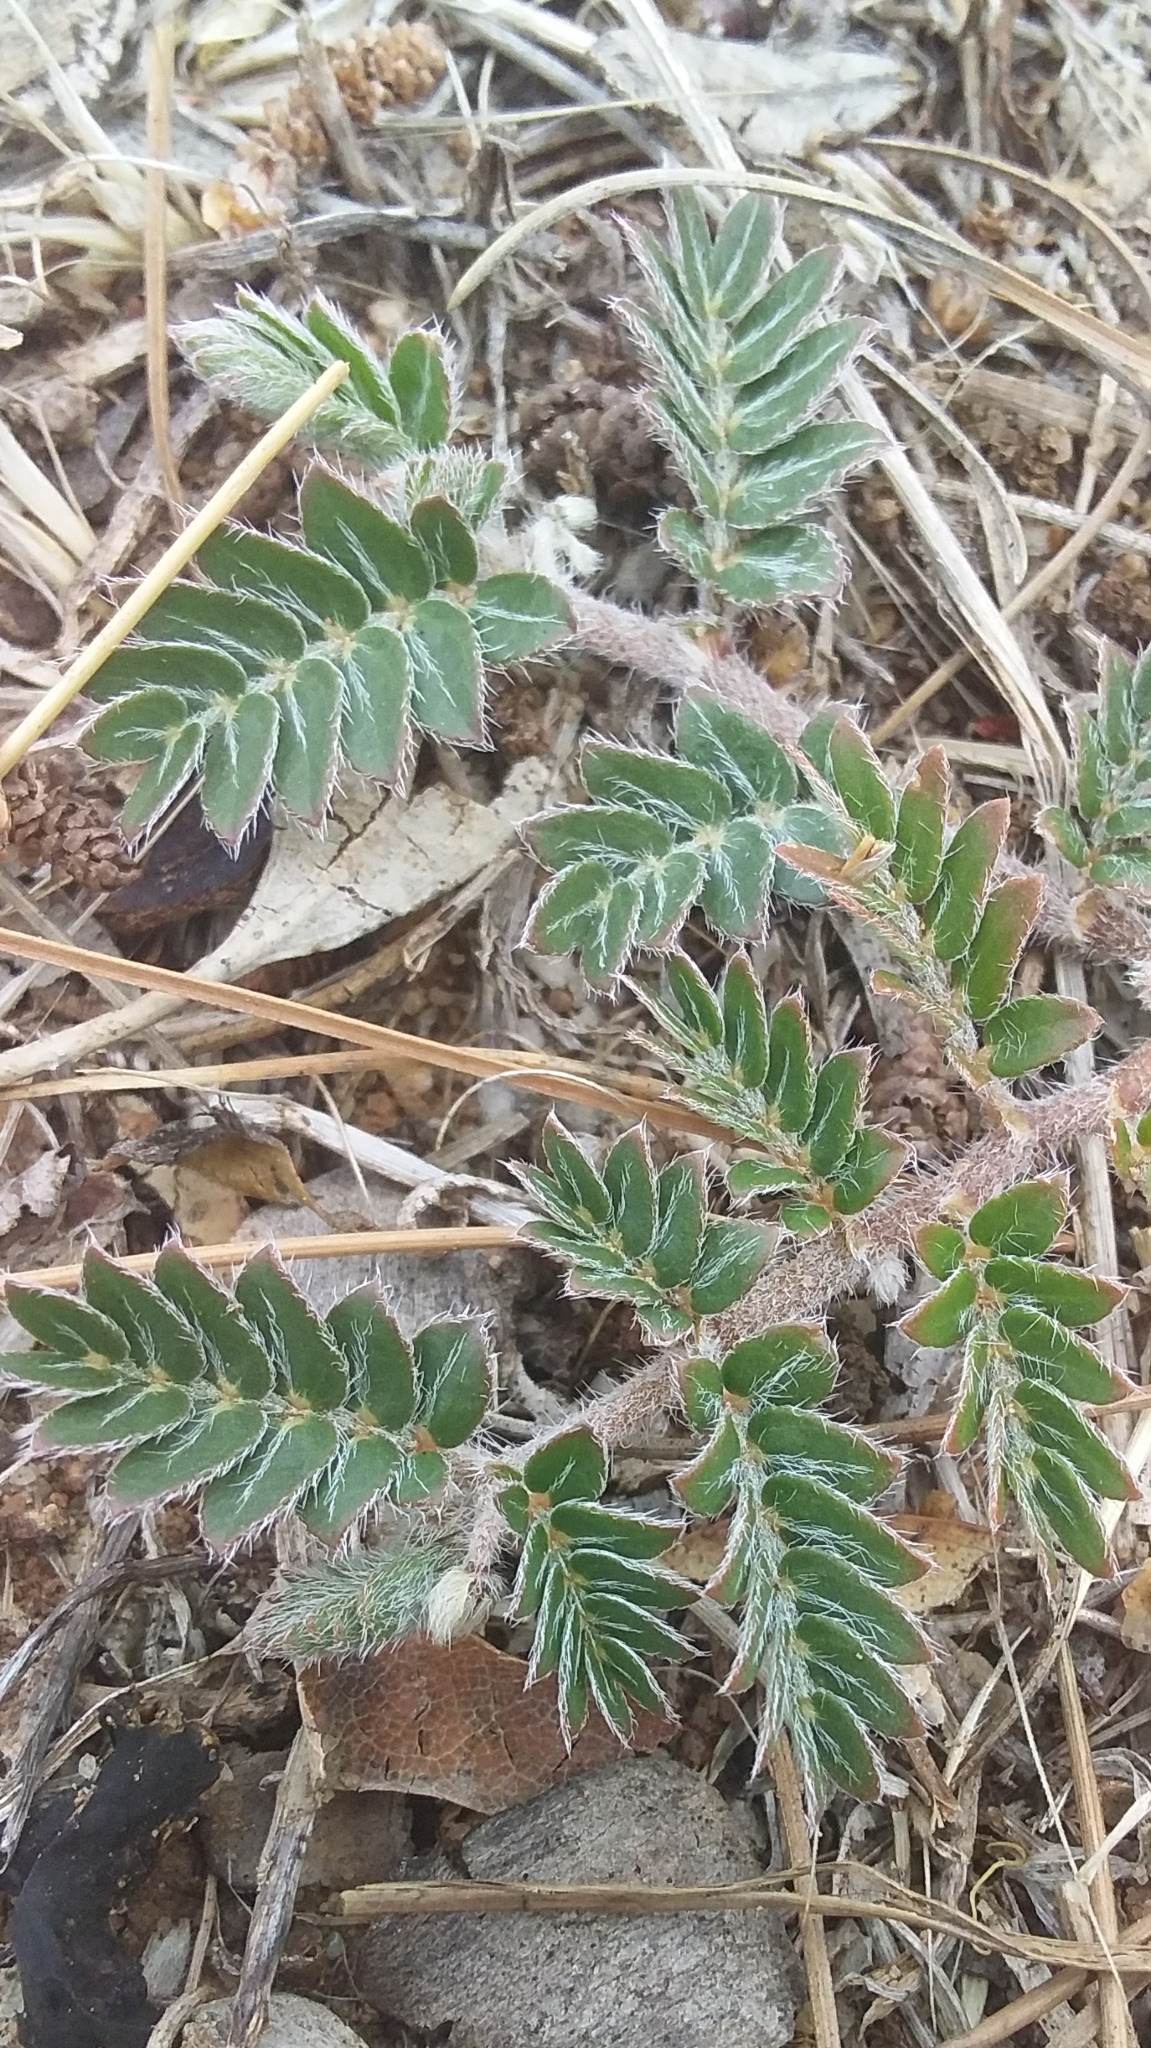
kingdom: Plantae
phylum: Tracheophyta
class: Magnoliopsida
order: Zygophyllales
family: Zygophyllaceae
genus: Tribulus
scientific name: Tribulus terrestris
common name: Puncturevine
